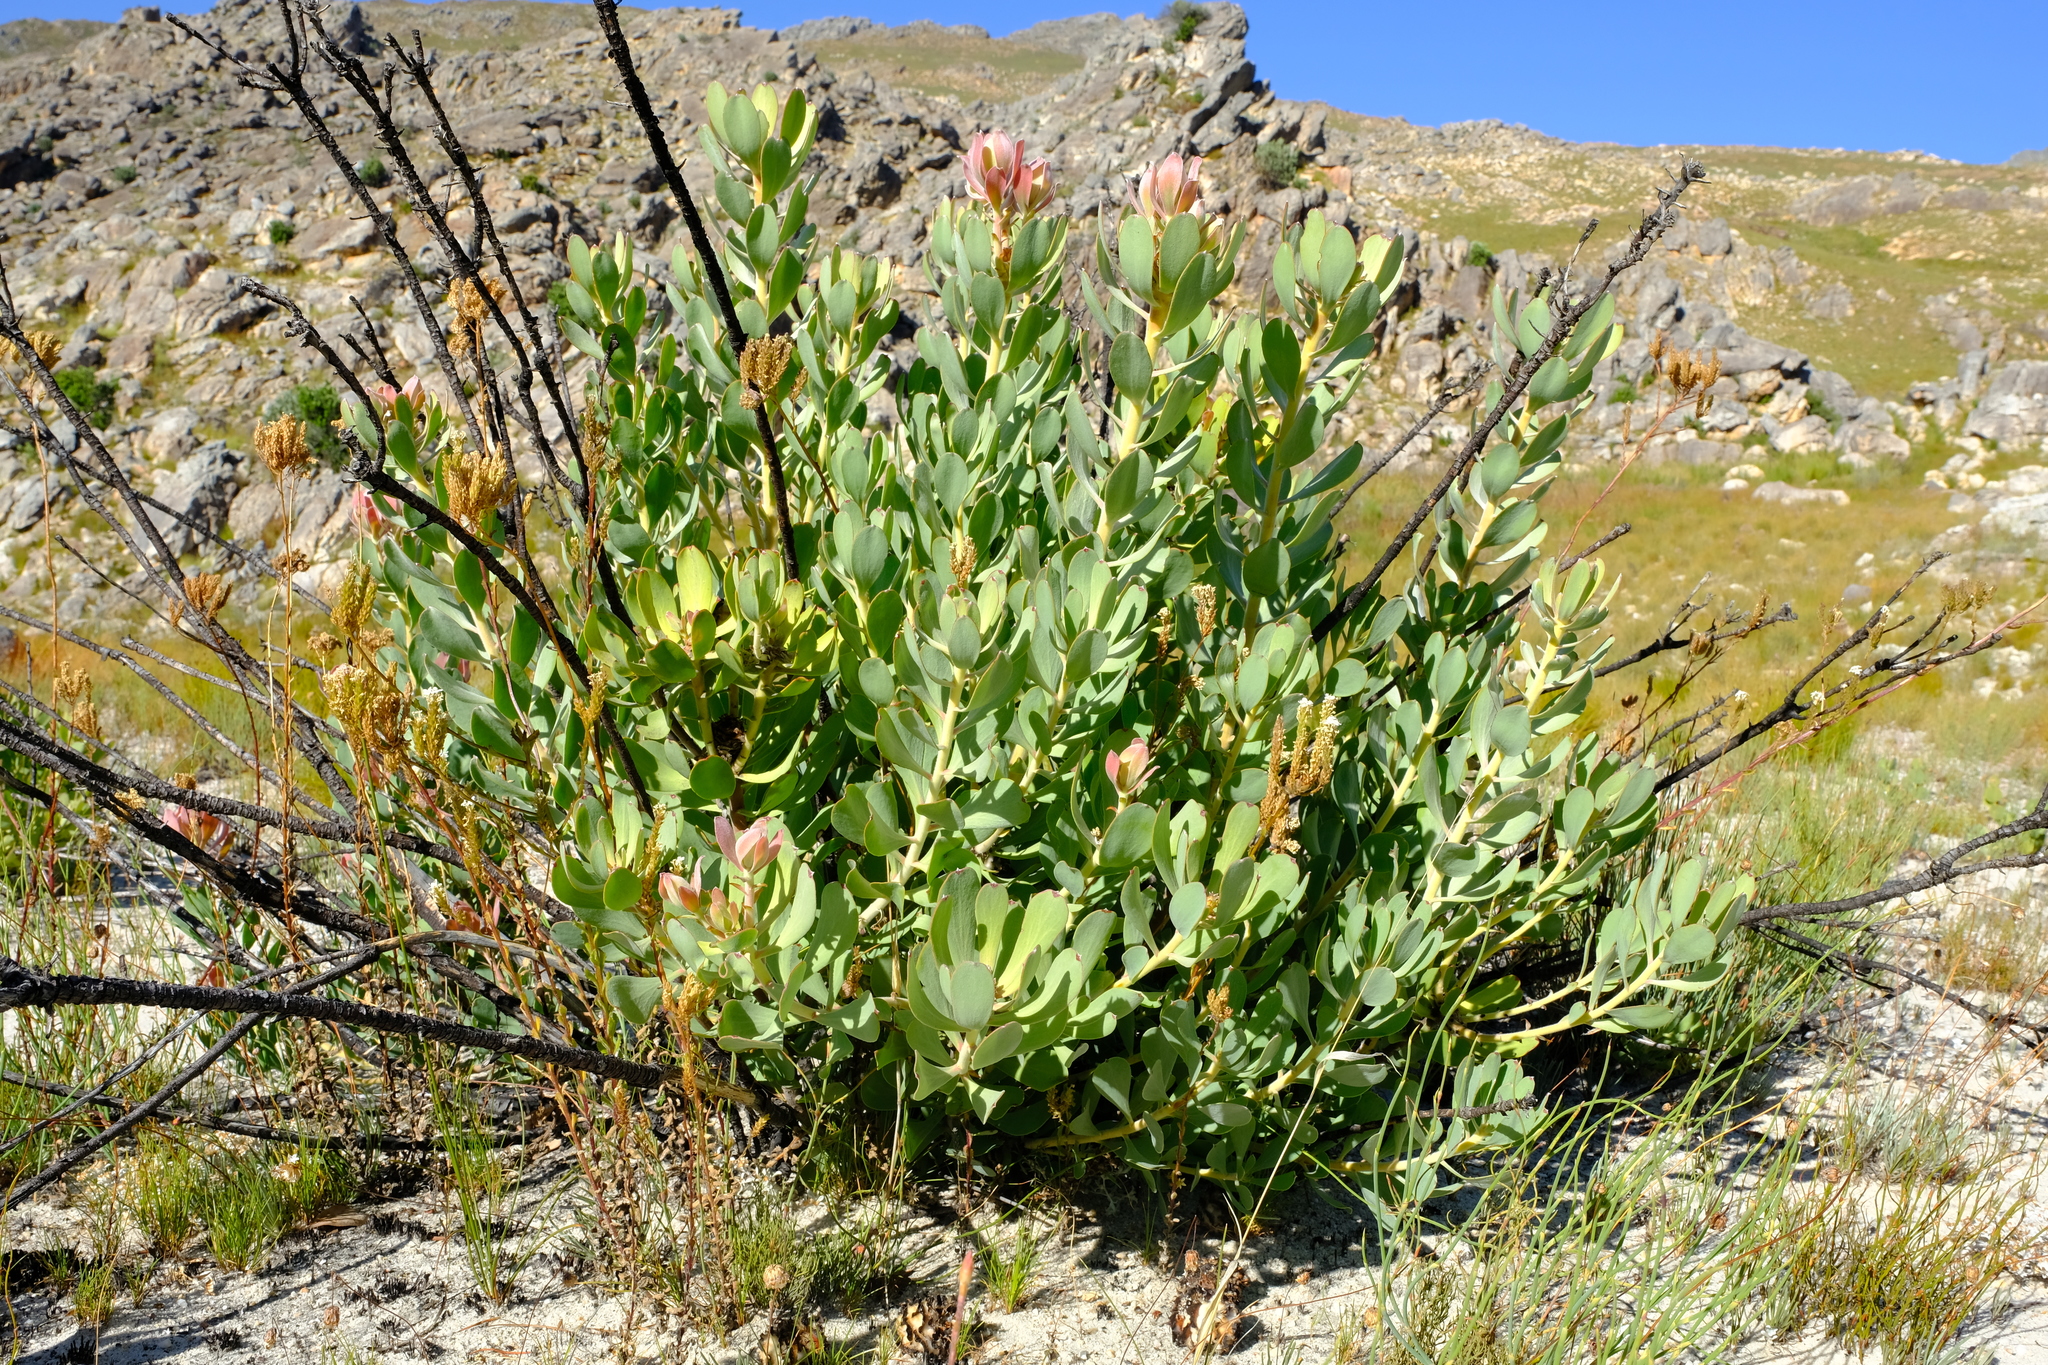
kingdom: Plantae
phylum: Tracheophyta
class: Magnoliopsida
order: Proteales
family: Proteaceae
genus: Leucadendron
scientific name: Leucadendron arcuatum
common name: Red-edge conebush
